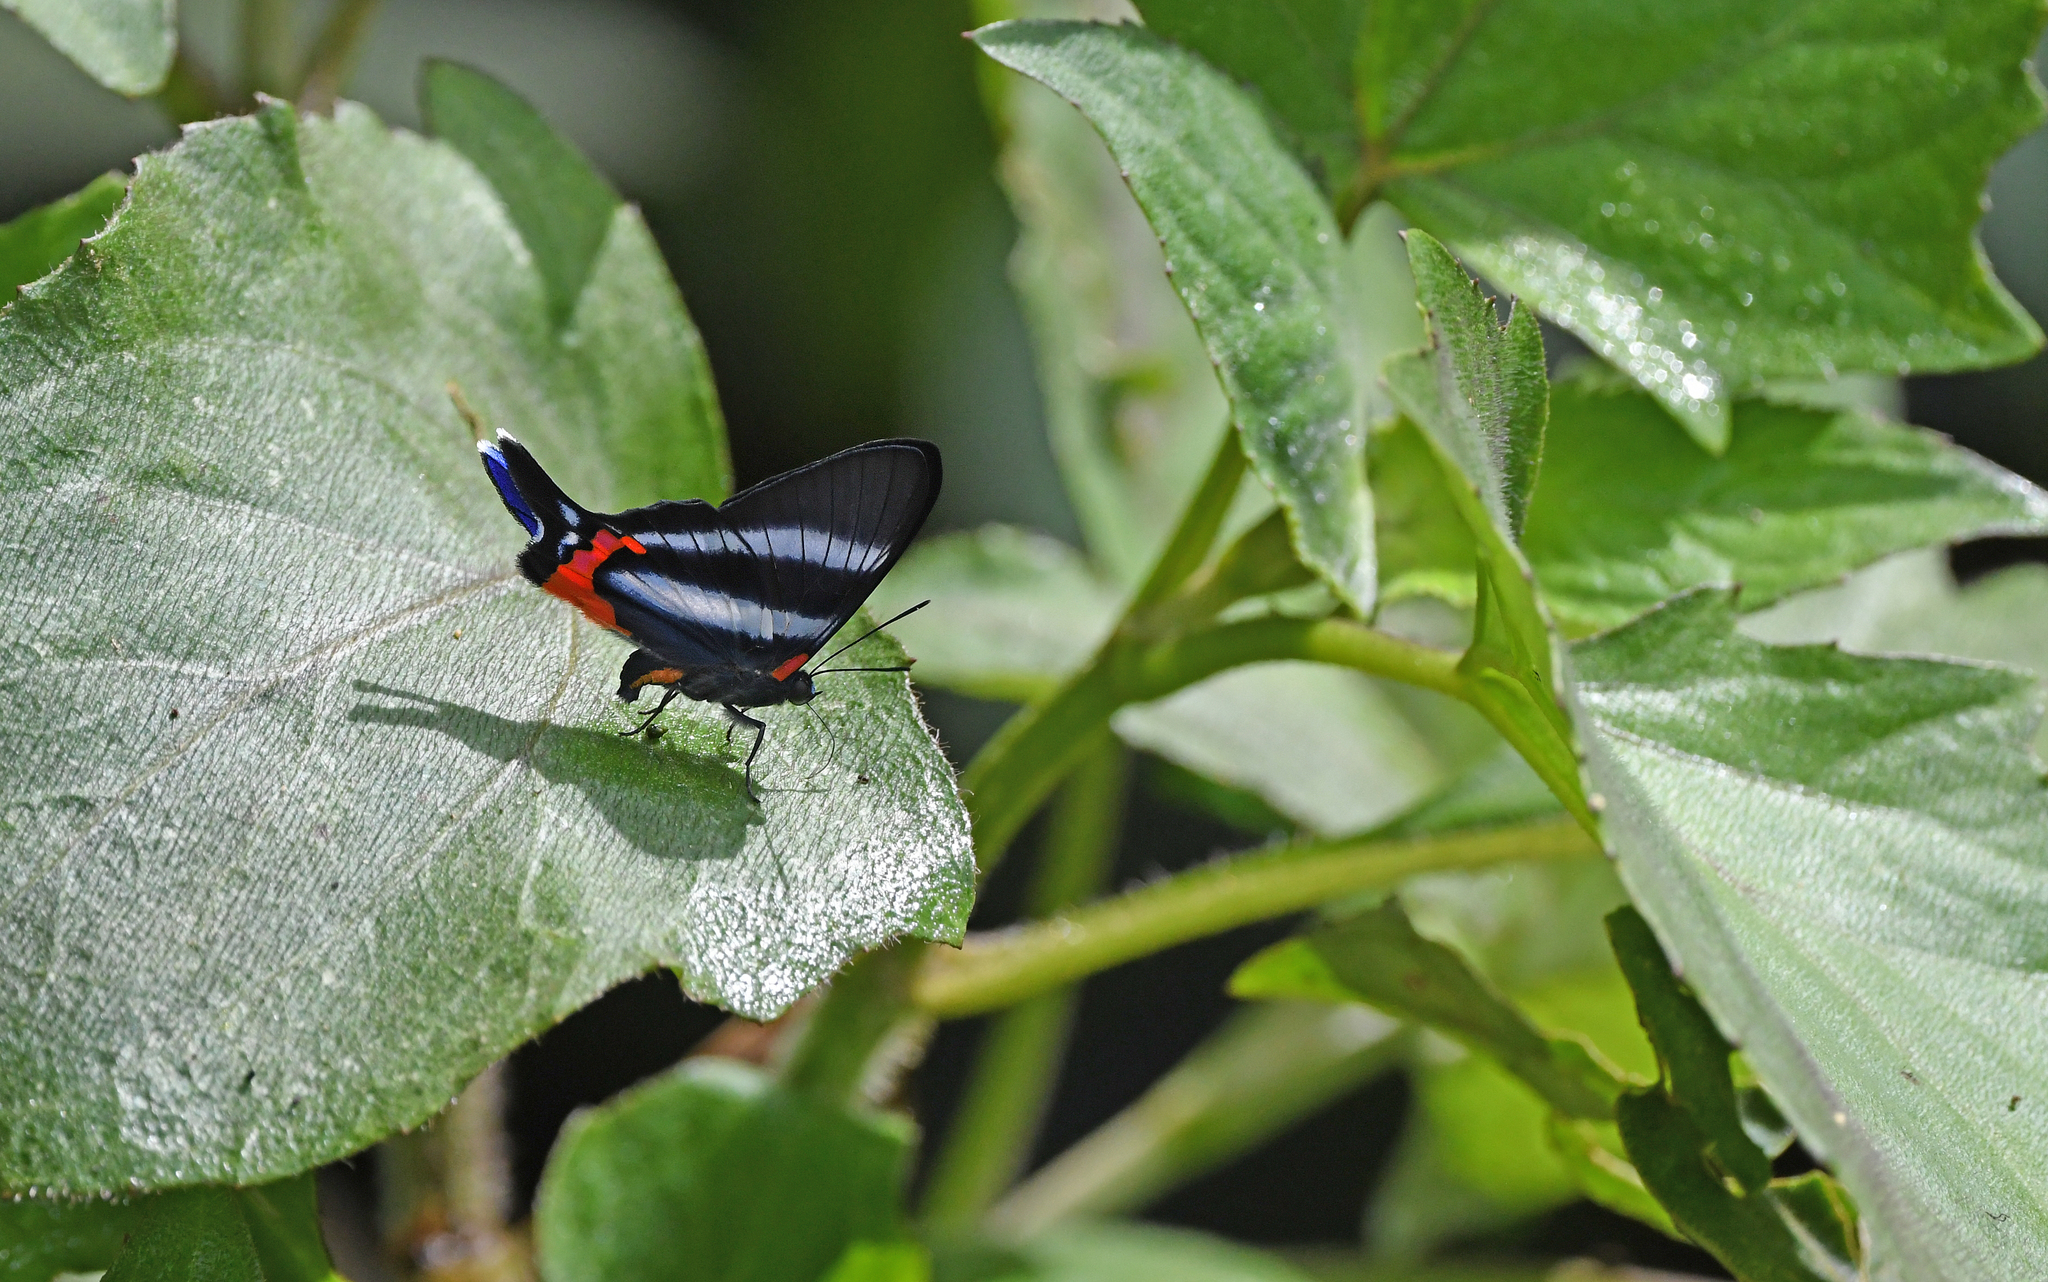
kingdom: Animalia
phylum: Arthropoda
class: Insecta
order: Lepidoptera
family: Riodinidae
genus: Rhetus
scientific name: Rhetus dysonii
